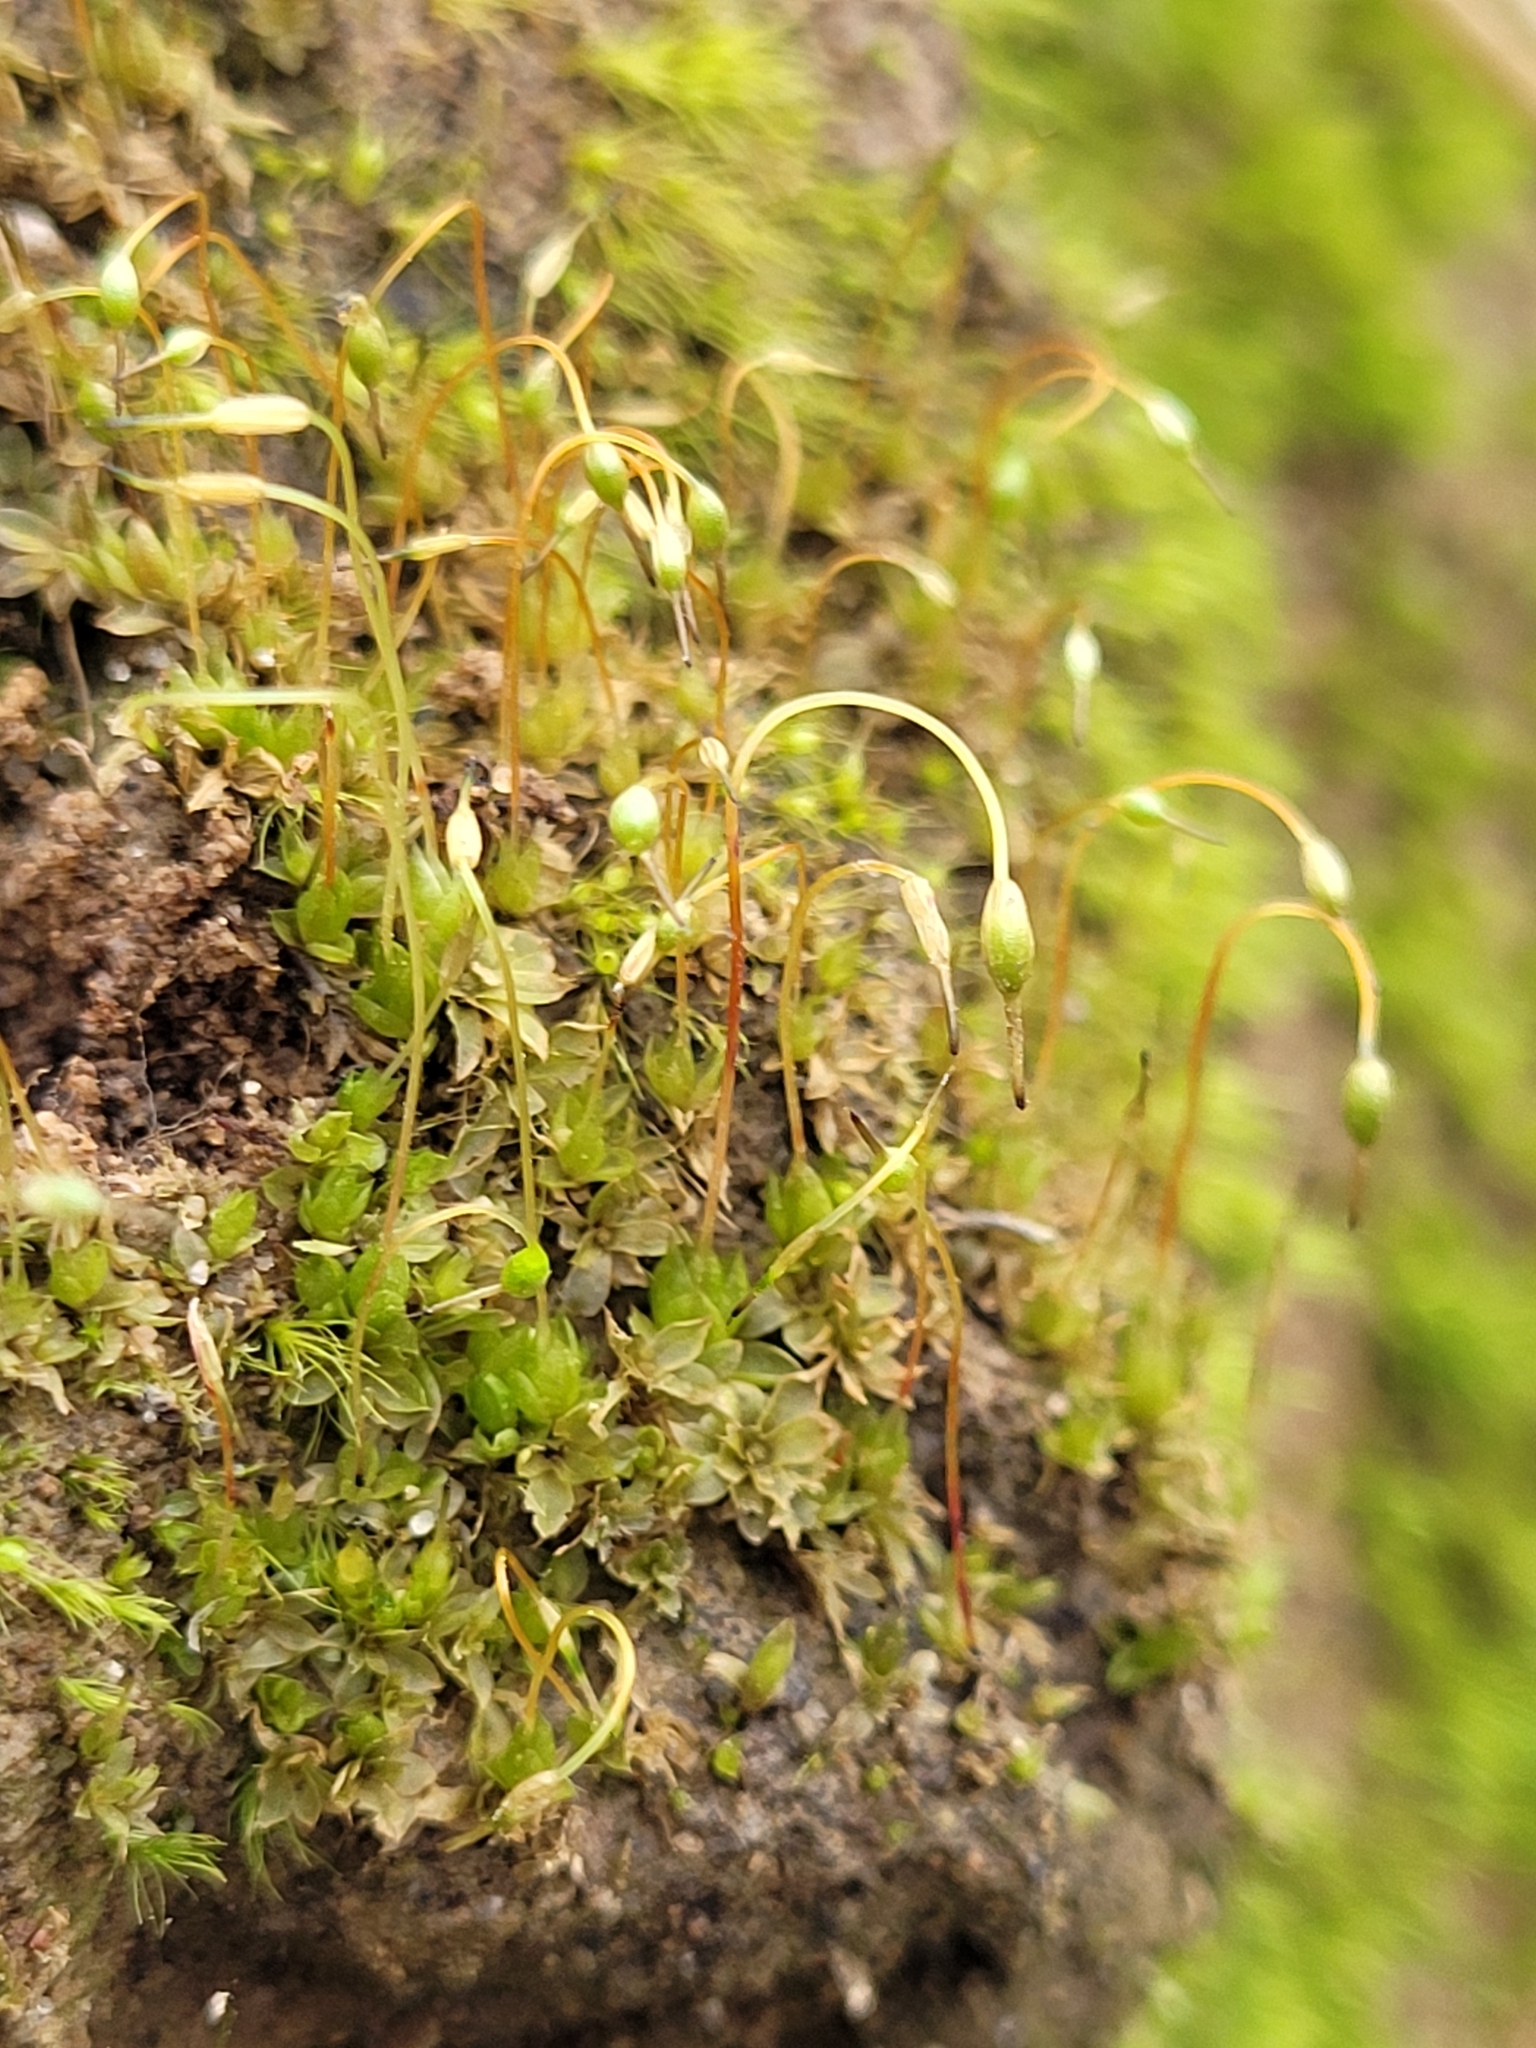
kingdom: Plantae
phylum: Bryophyta
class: Bryopsida
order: Funariales
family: Funariaceae
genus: Funaria
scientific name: Funaria hygrometrica
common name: Common cord moss
